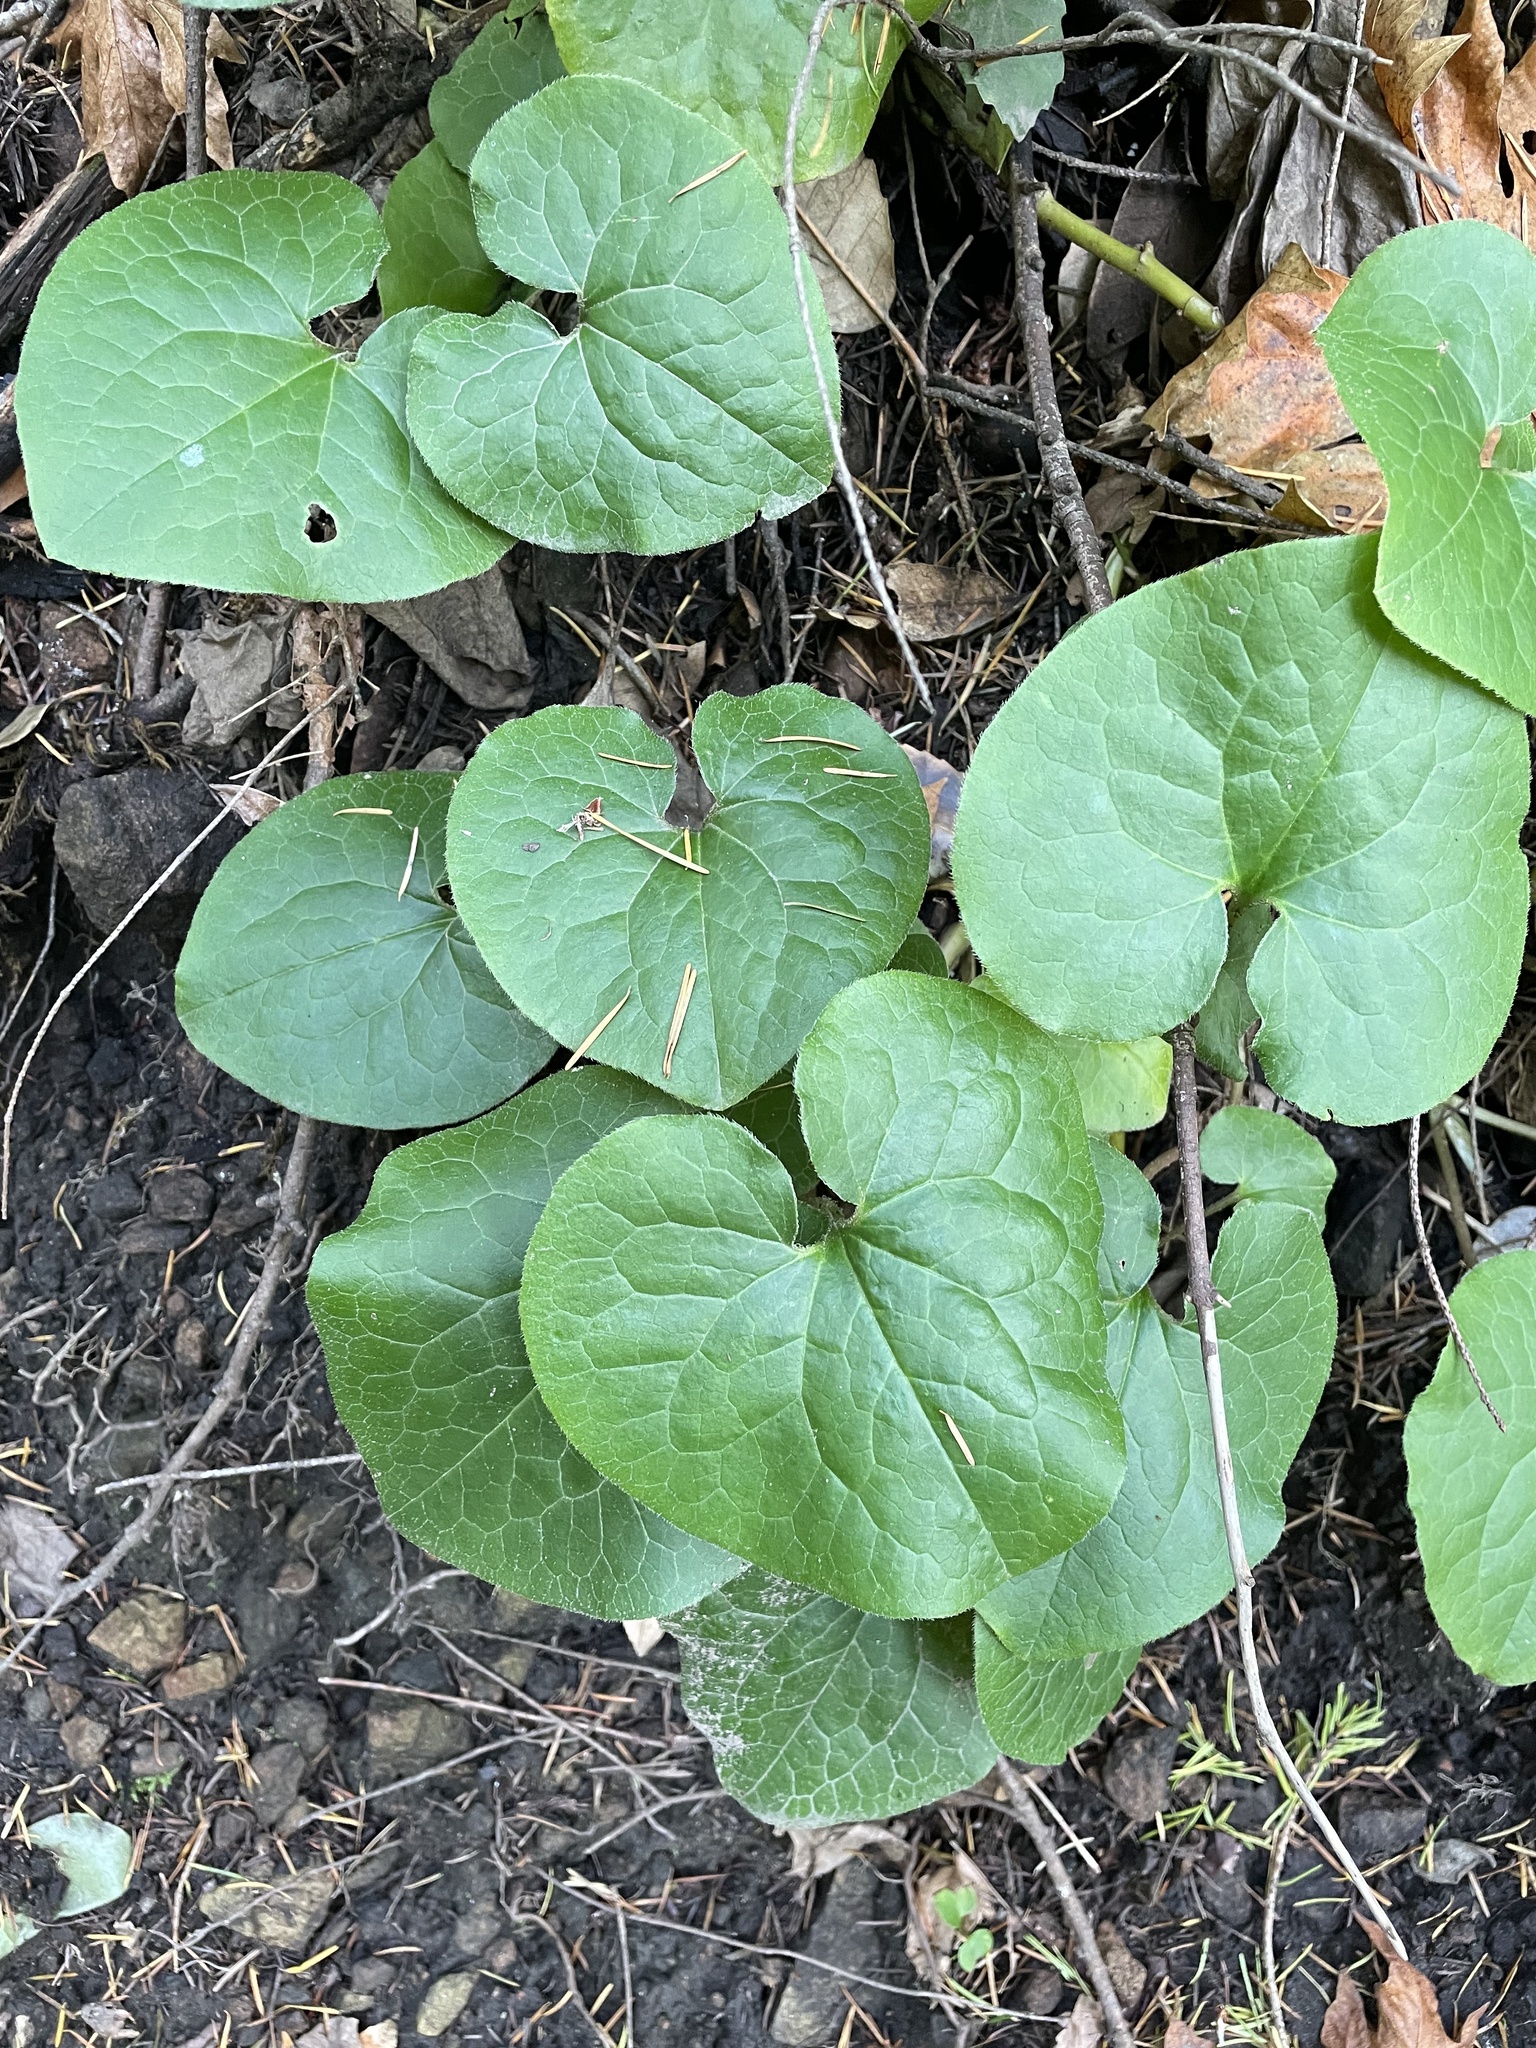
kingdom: Plantae
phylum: Tracheophyta
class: Magnoliopsida
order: Piperales
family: Aristolochiaceae
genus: Asarum
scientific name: Asarum caudatum
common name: Wild ginger
